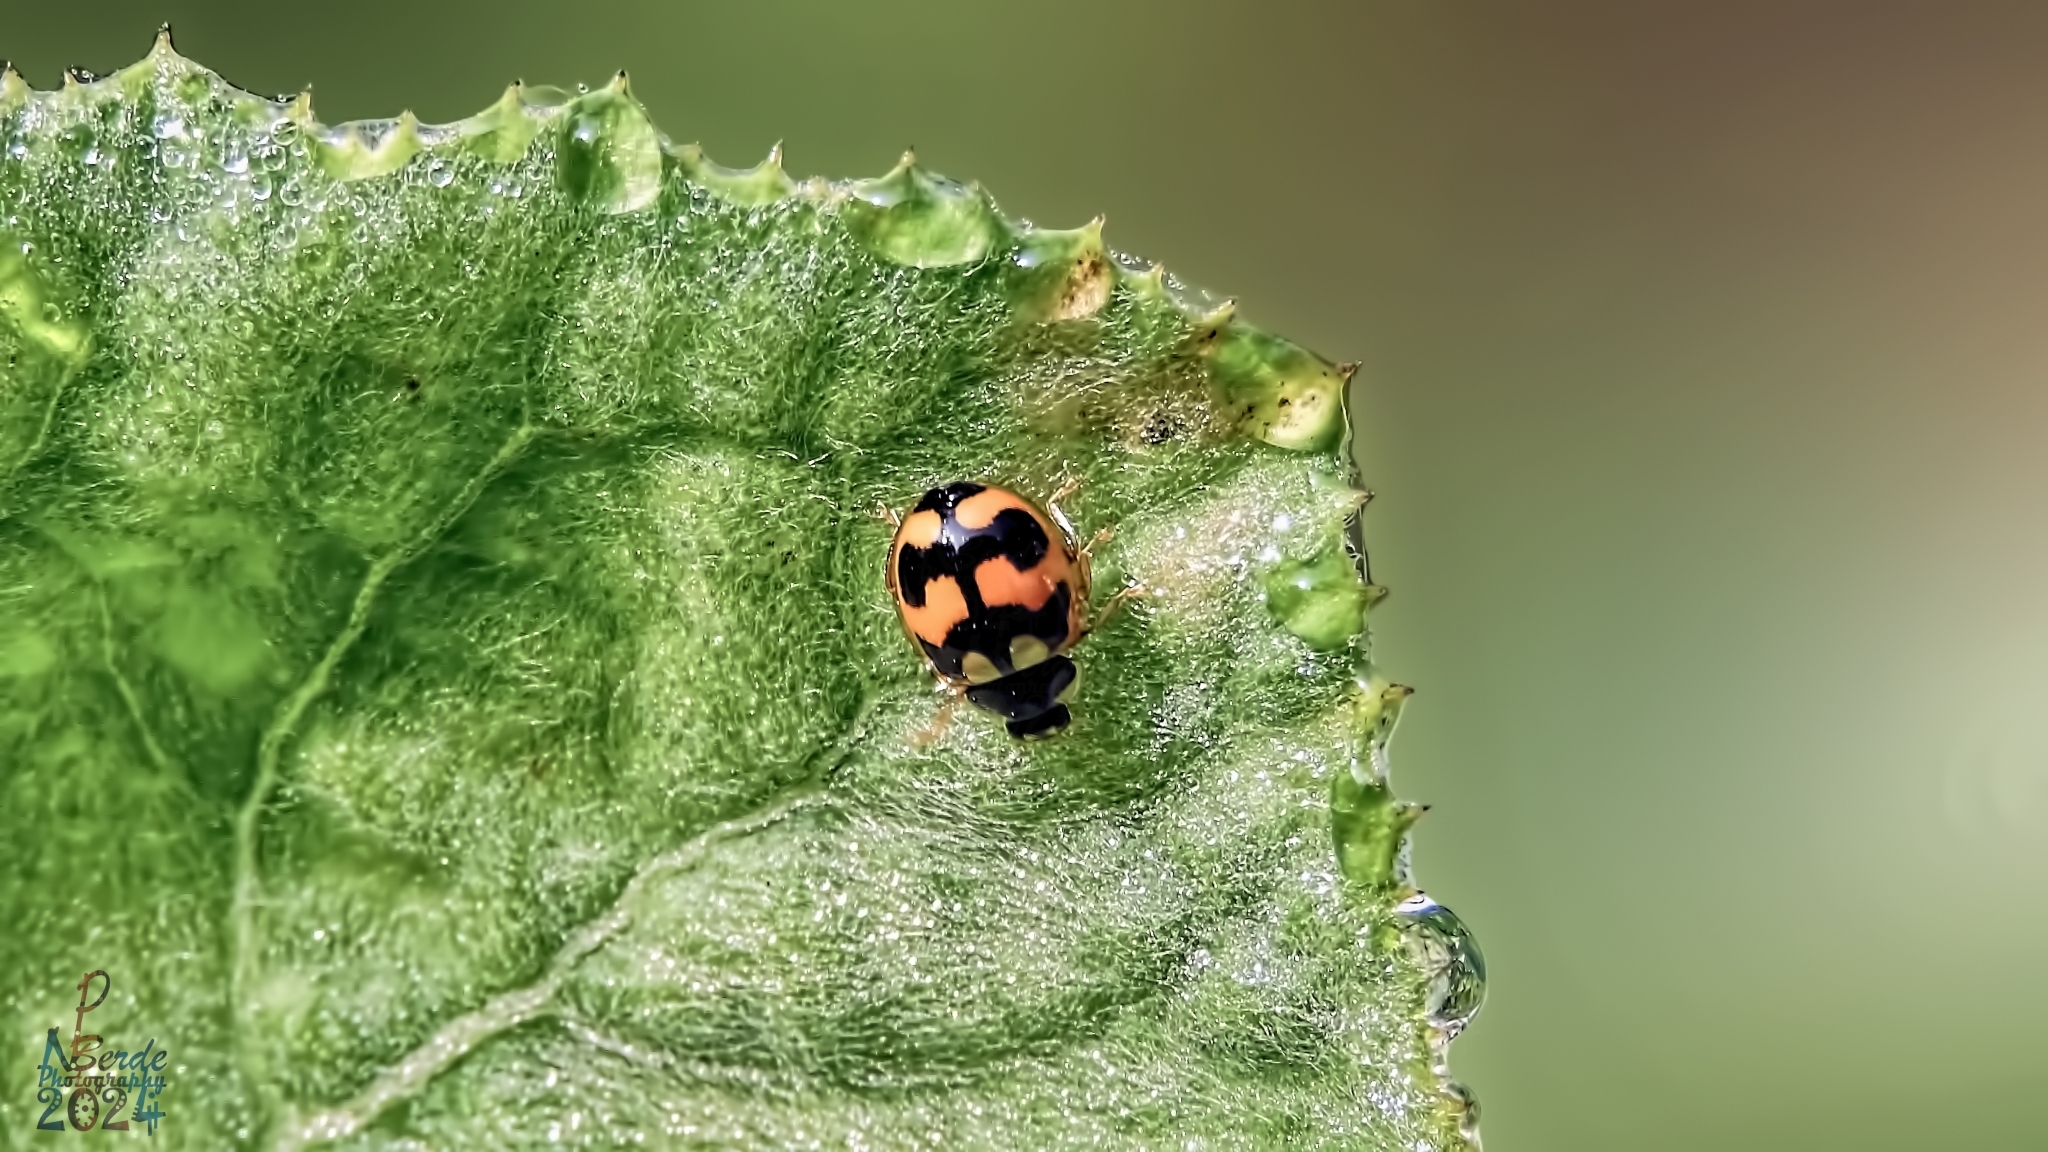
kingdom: Animalia
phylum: Arthropoda
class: Insecta
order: Coleoptera
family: Coccinellidae
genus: Propylea
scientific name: Propylea
